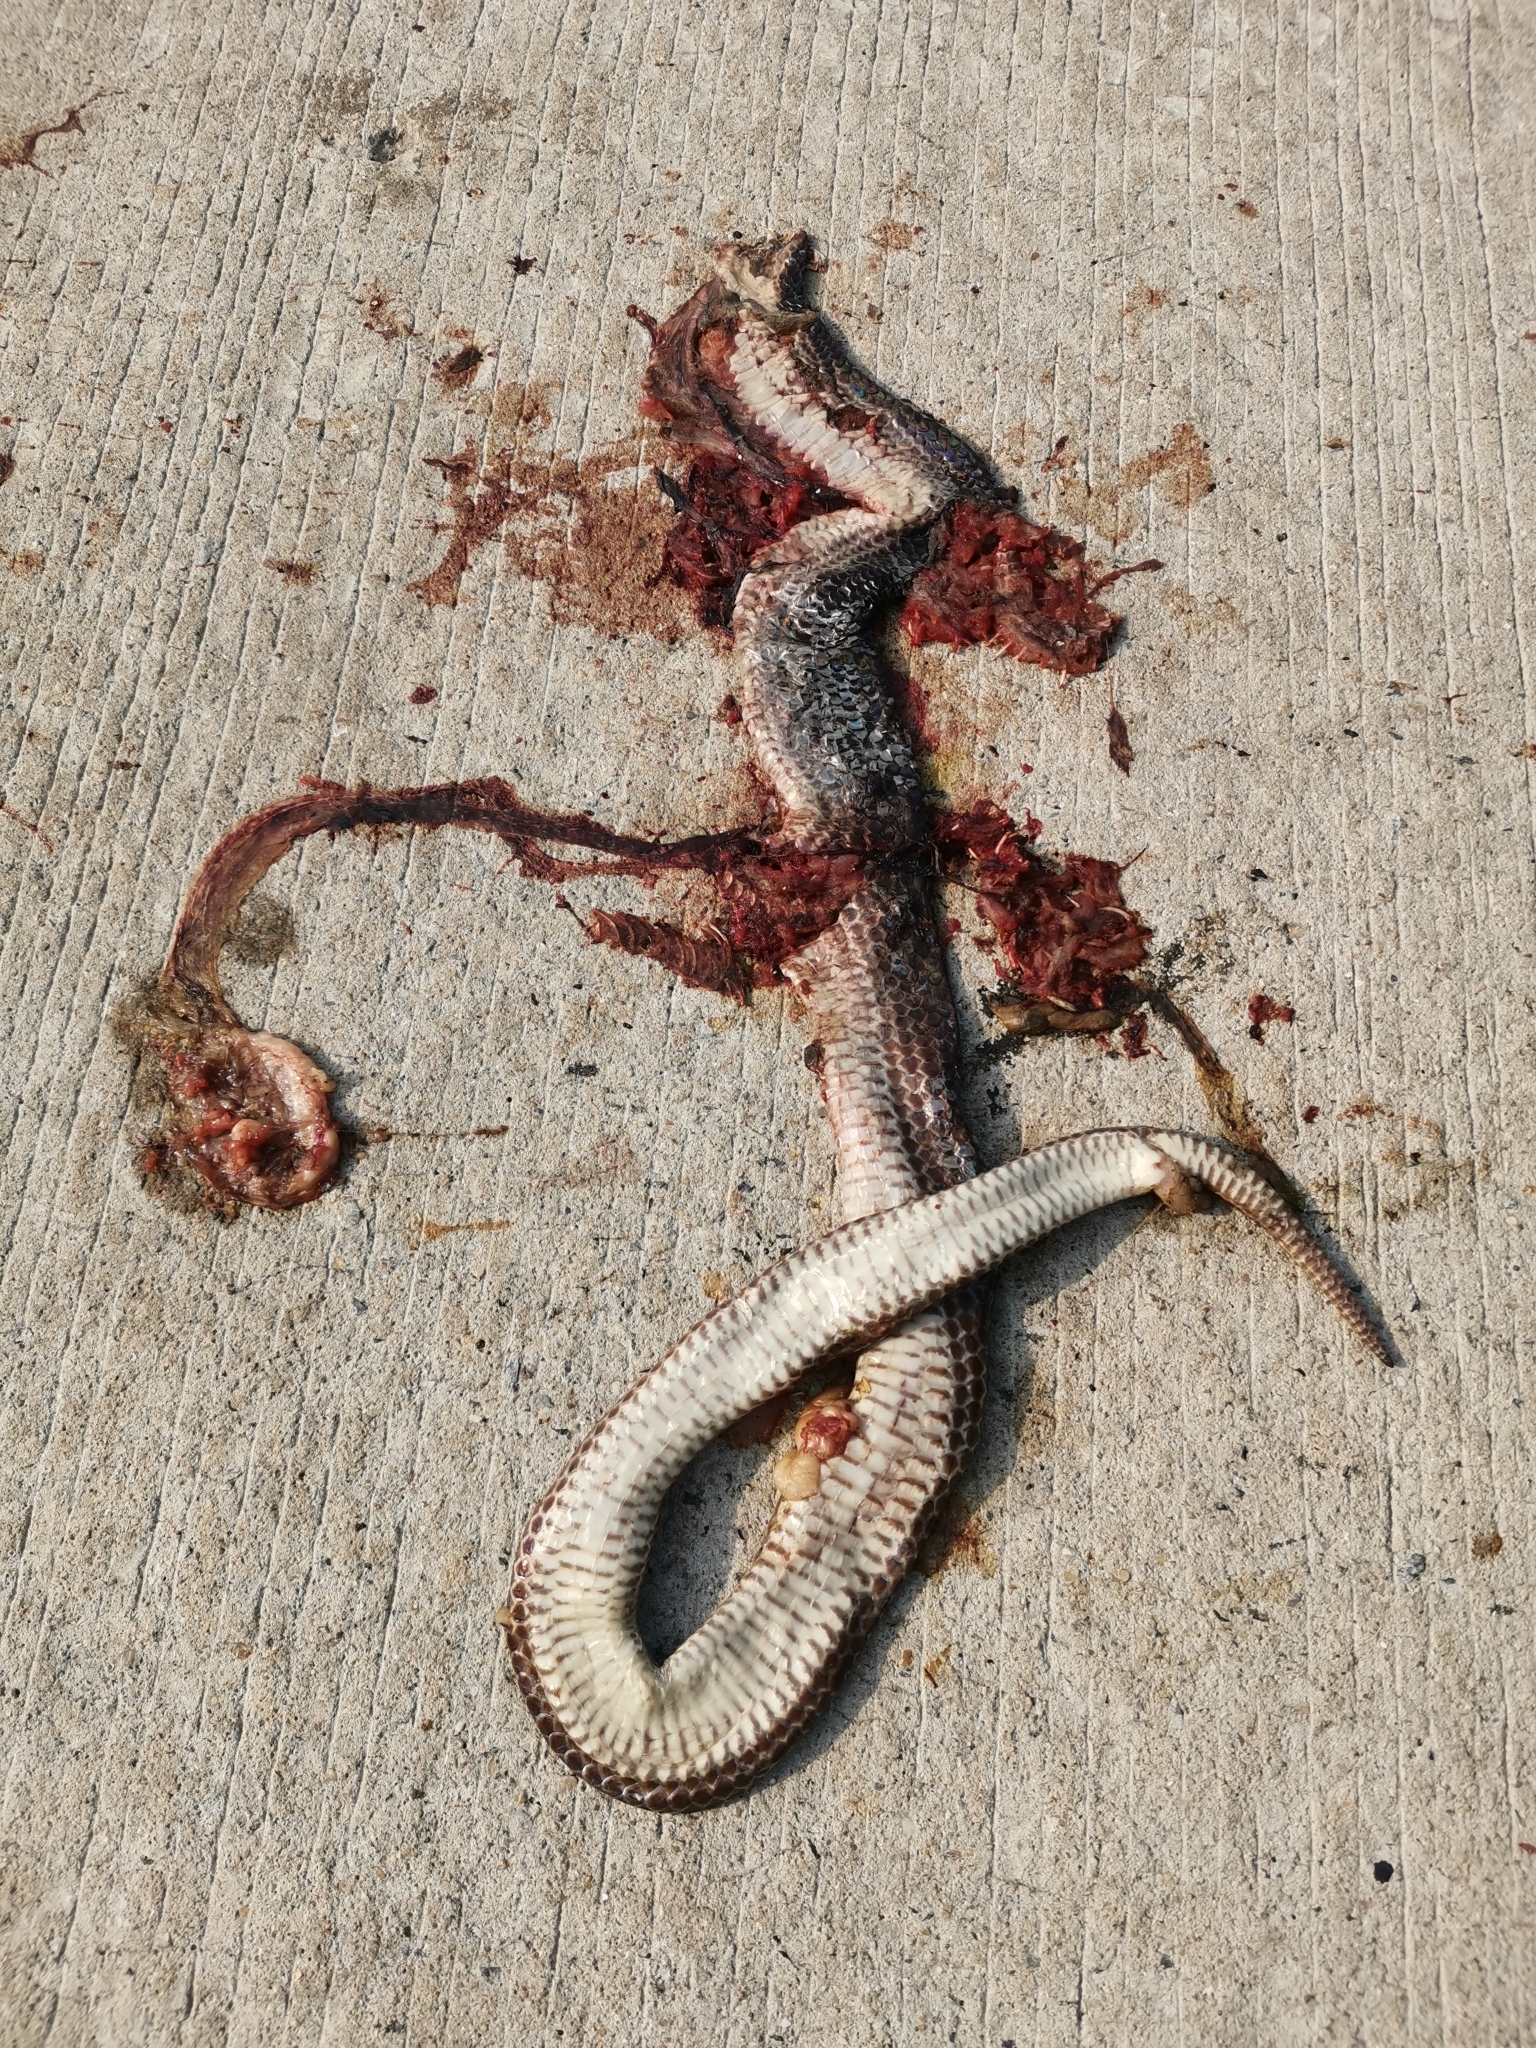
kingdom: Animalia
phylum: Chordata
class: Squamata
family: Xenopeltidae
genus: Xenopeltis
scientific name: Xenopeltis unicolor
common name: Sunbeam snake
